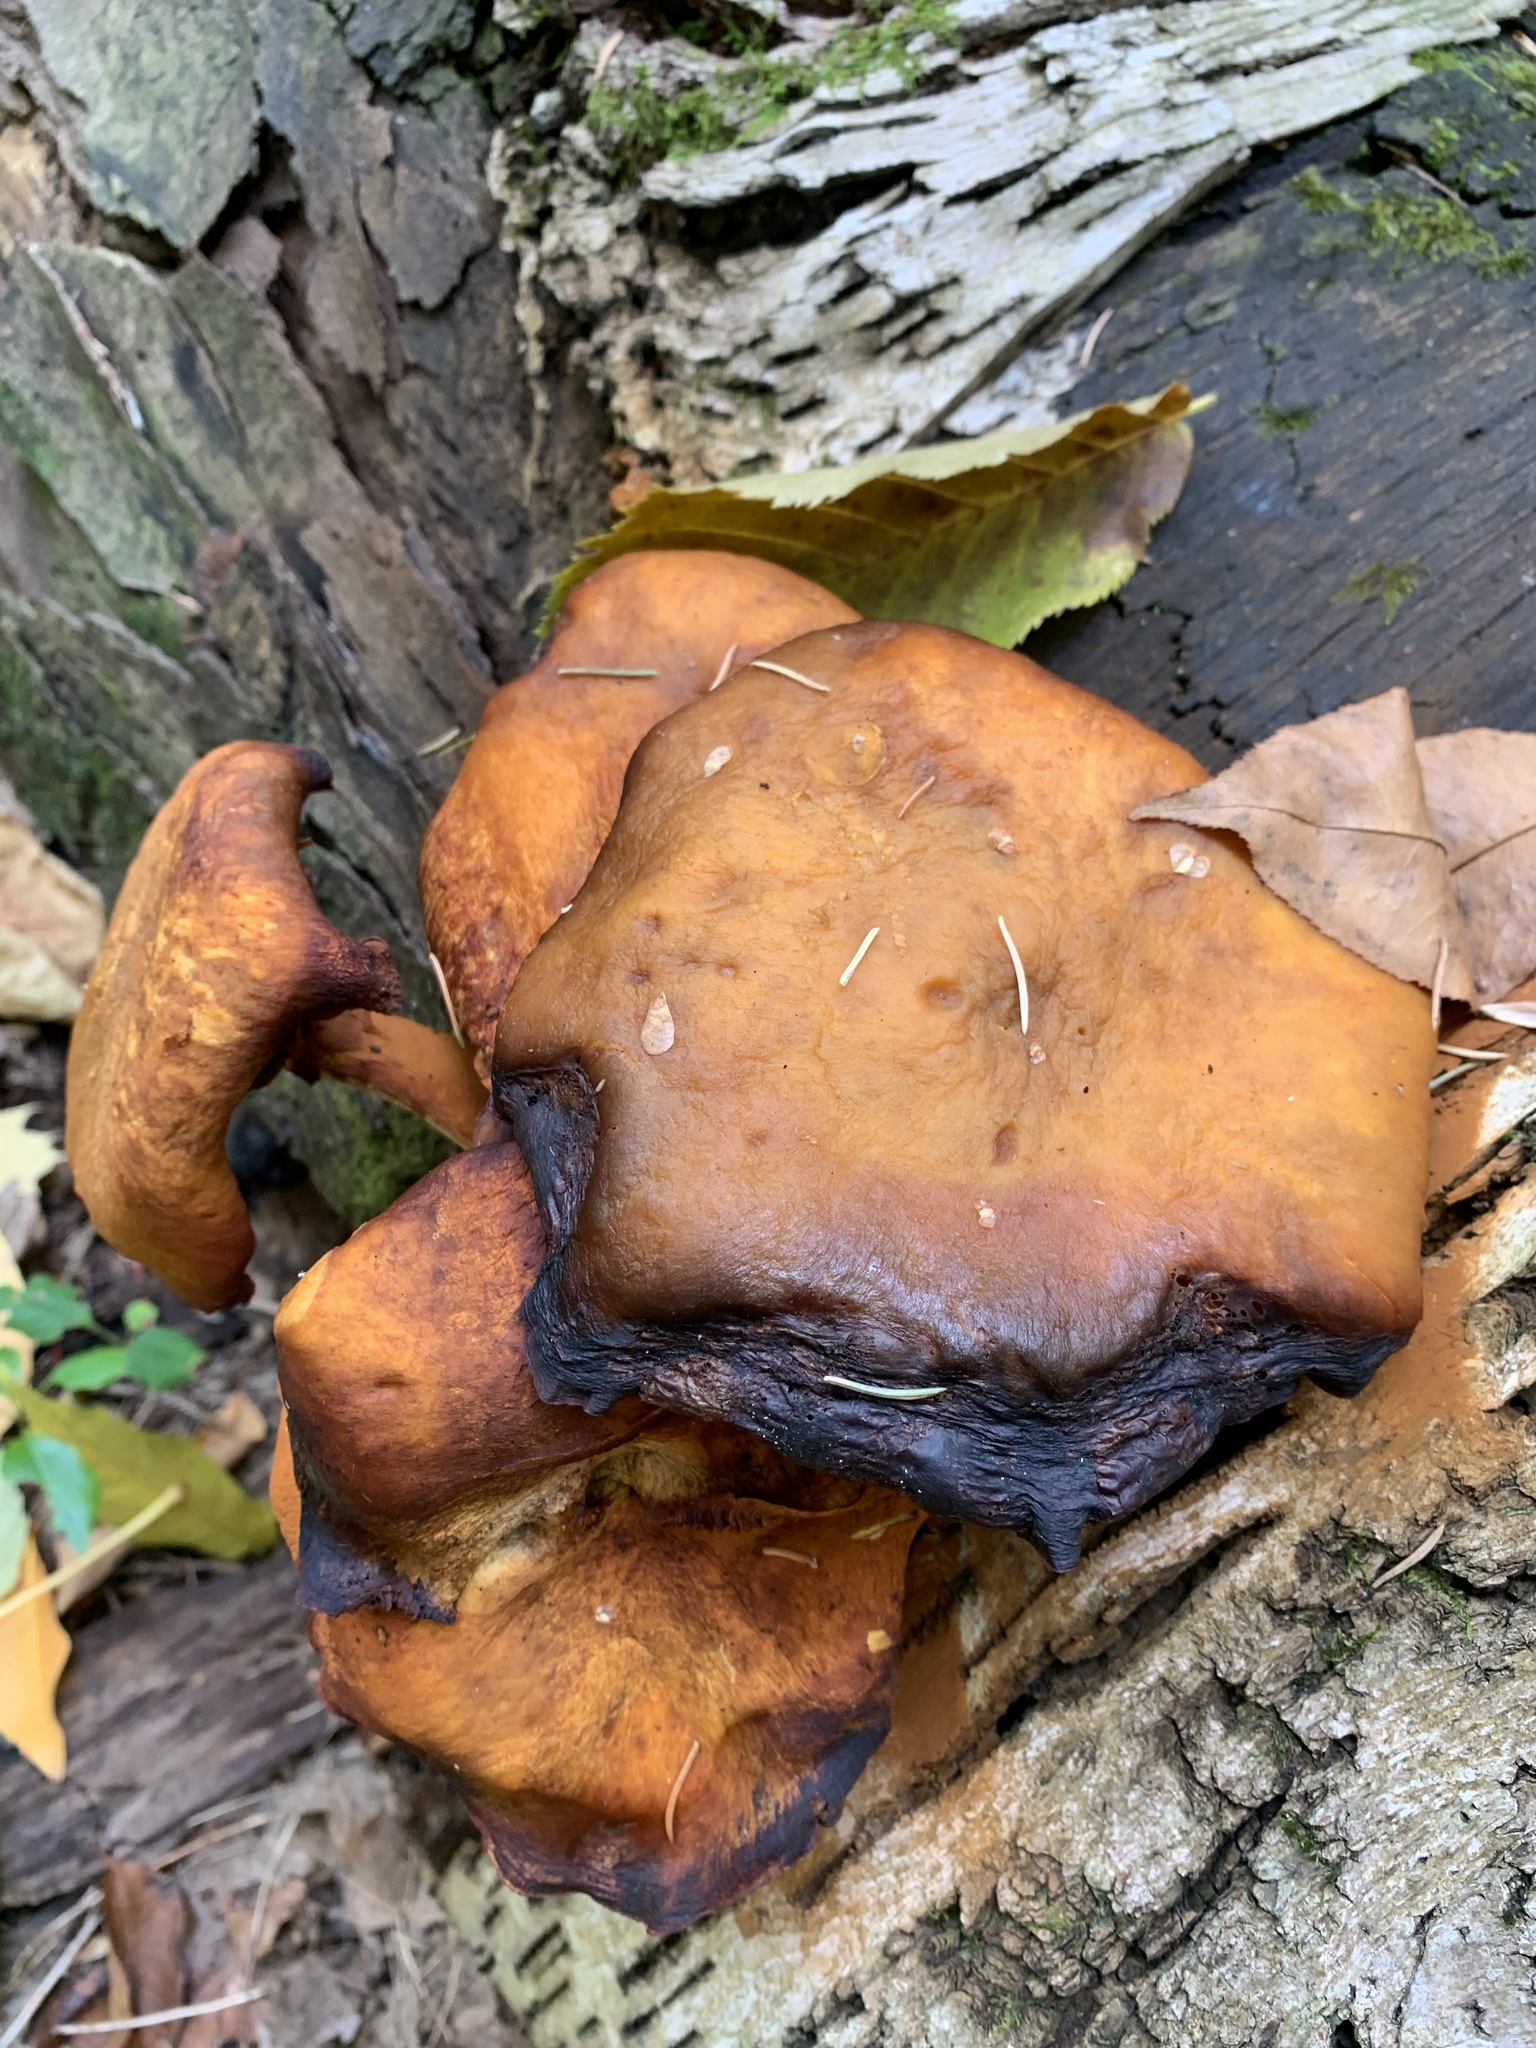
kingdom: Fungi
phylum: Basidiomycota
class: Agaricomycetes
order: Agaricales
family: Hymenogastraceae
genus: Gymnopilus
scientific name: Gymnopilus sapineus
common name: Scaly rustgill
